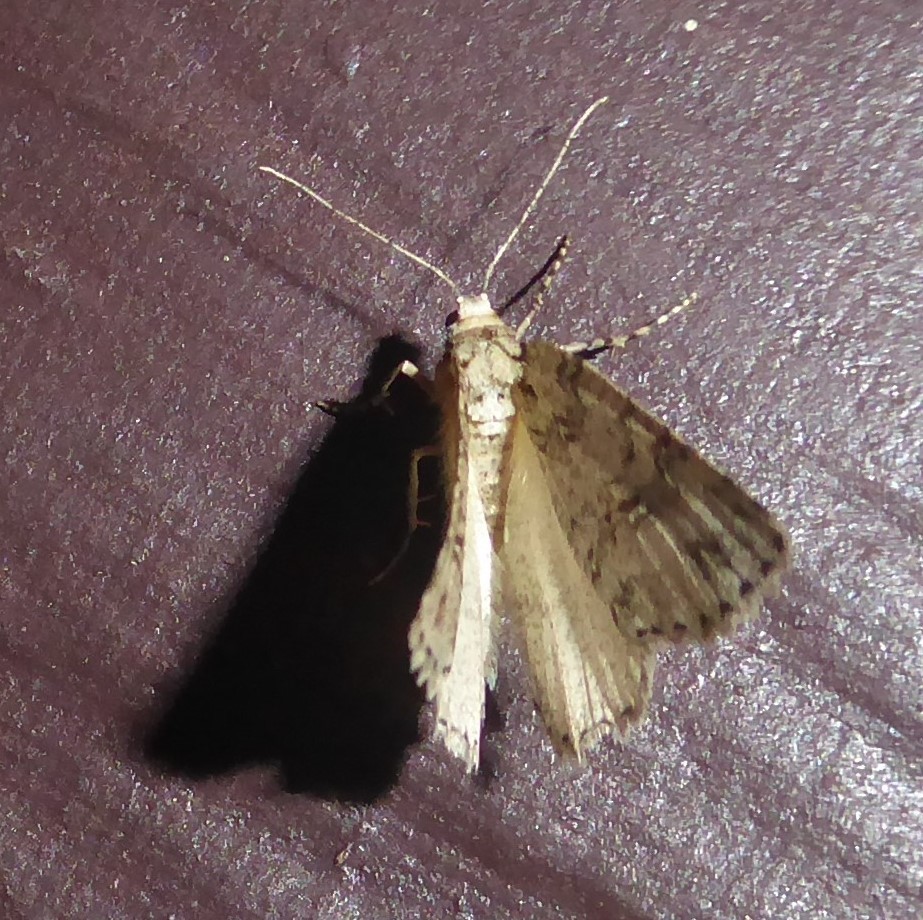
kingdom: Animalia
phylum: Arthropoda
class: Insecta
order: Lepidoptera
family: Geometridae
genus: Pseudocoremia
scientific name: Pseudocoremia rudisata
